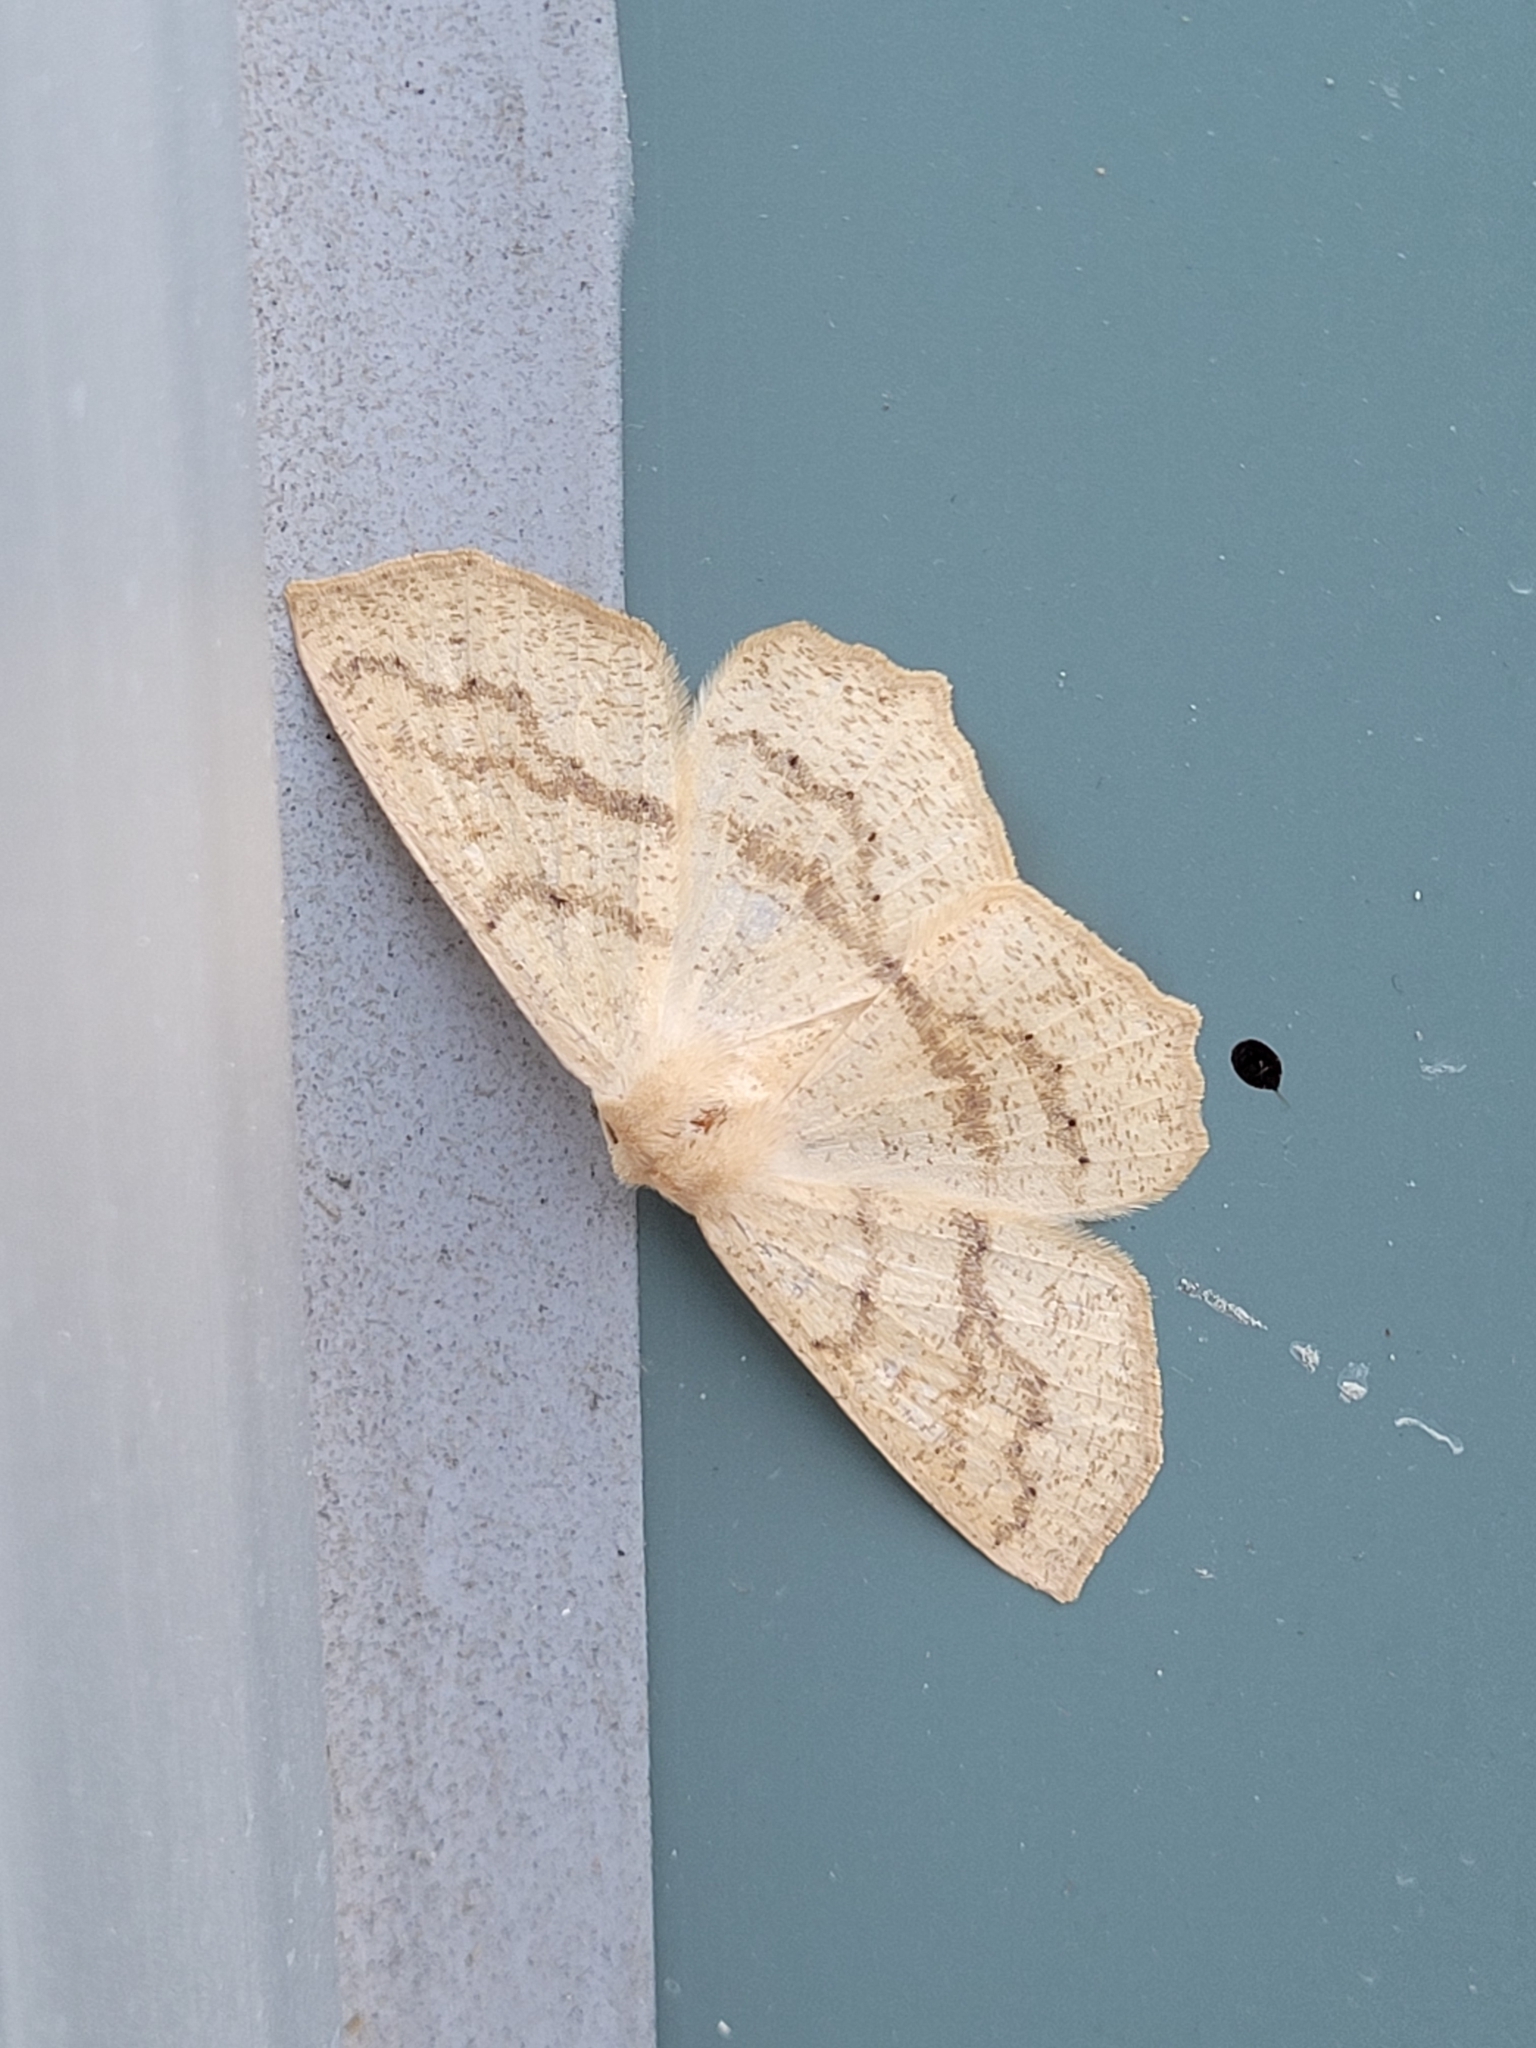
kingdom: Animalia
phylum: Arthropoda
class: Insecta
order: Lepidoptera
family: Geometridae
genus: Sabulodes
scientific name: Sabulodes aegrotata
